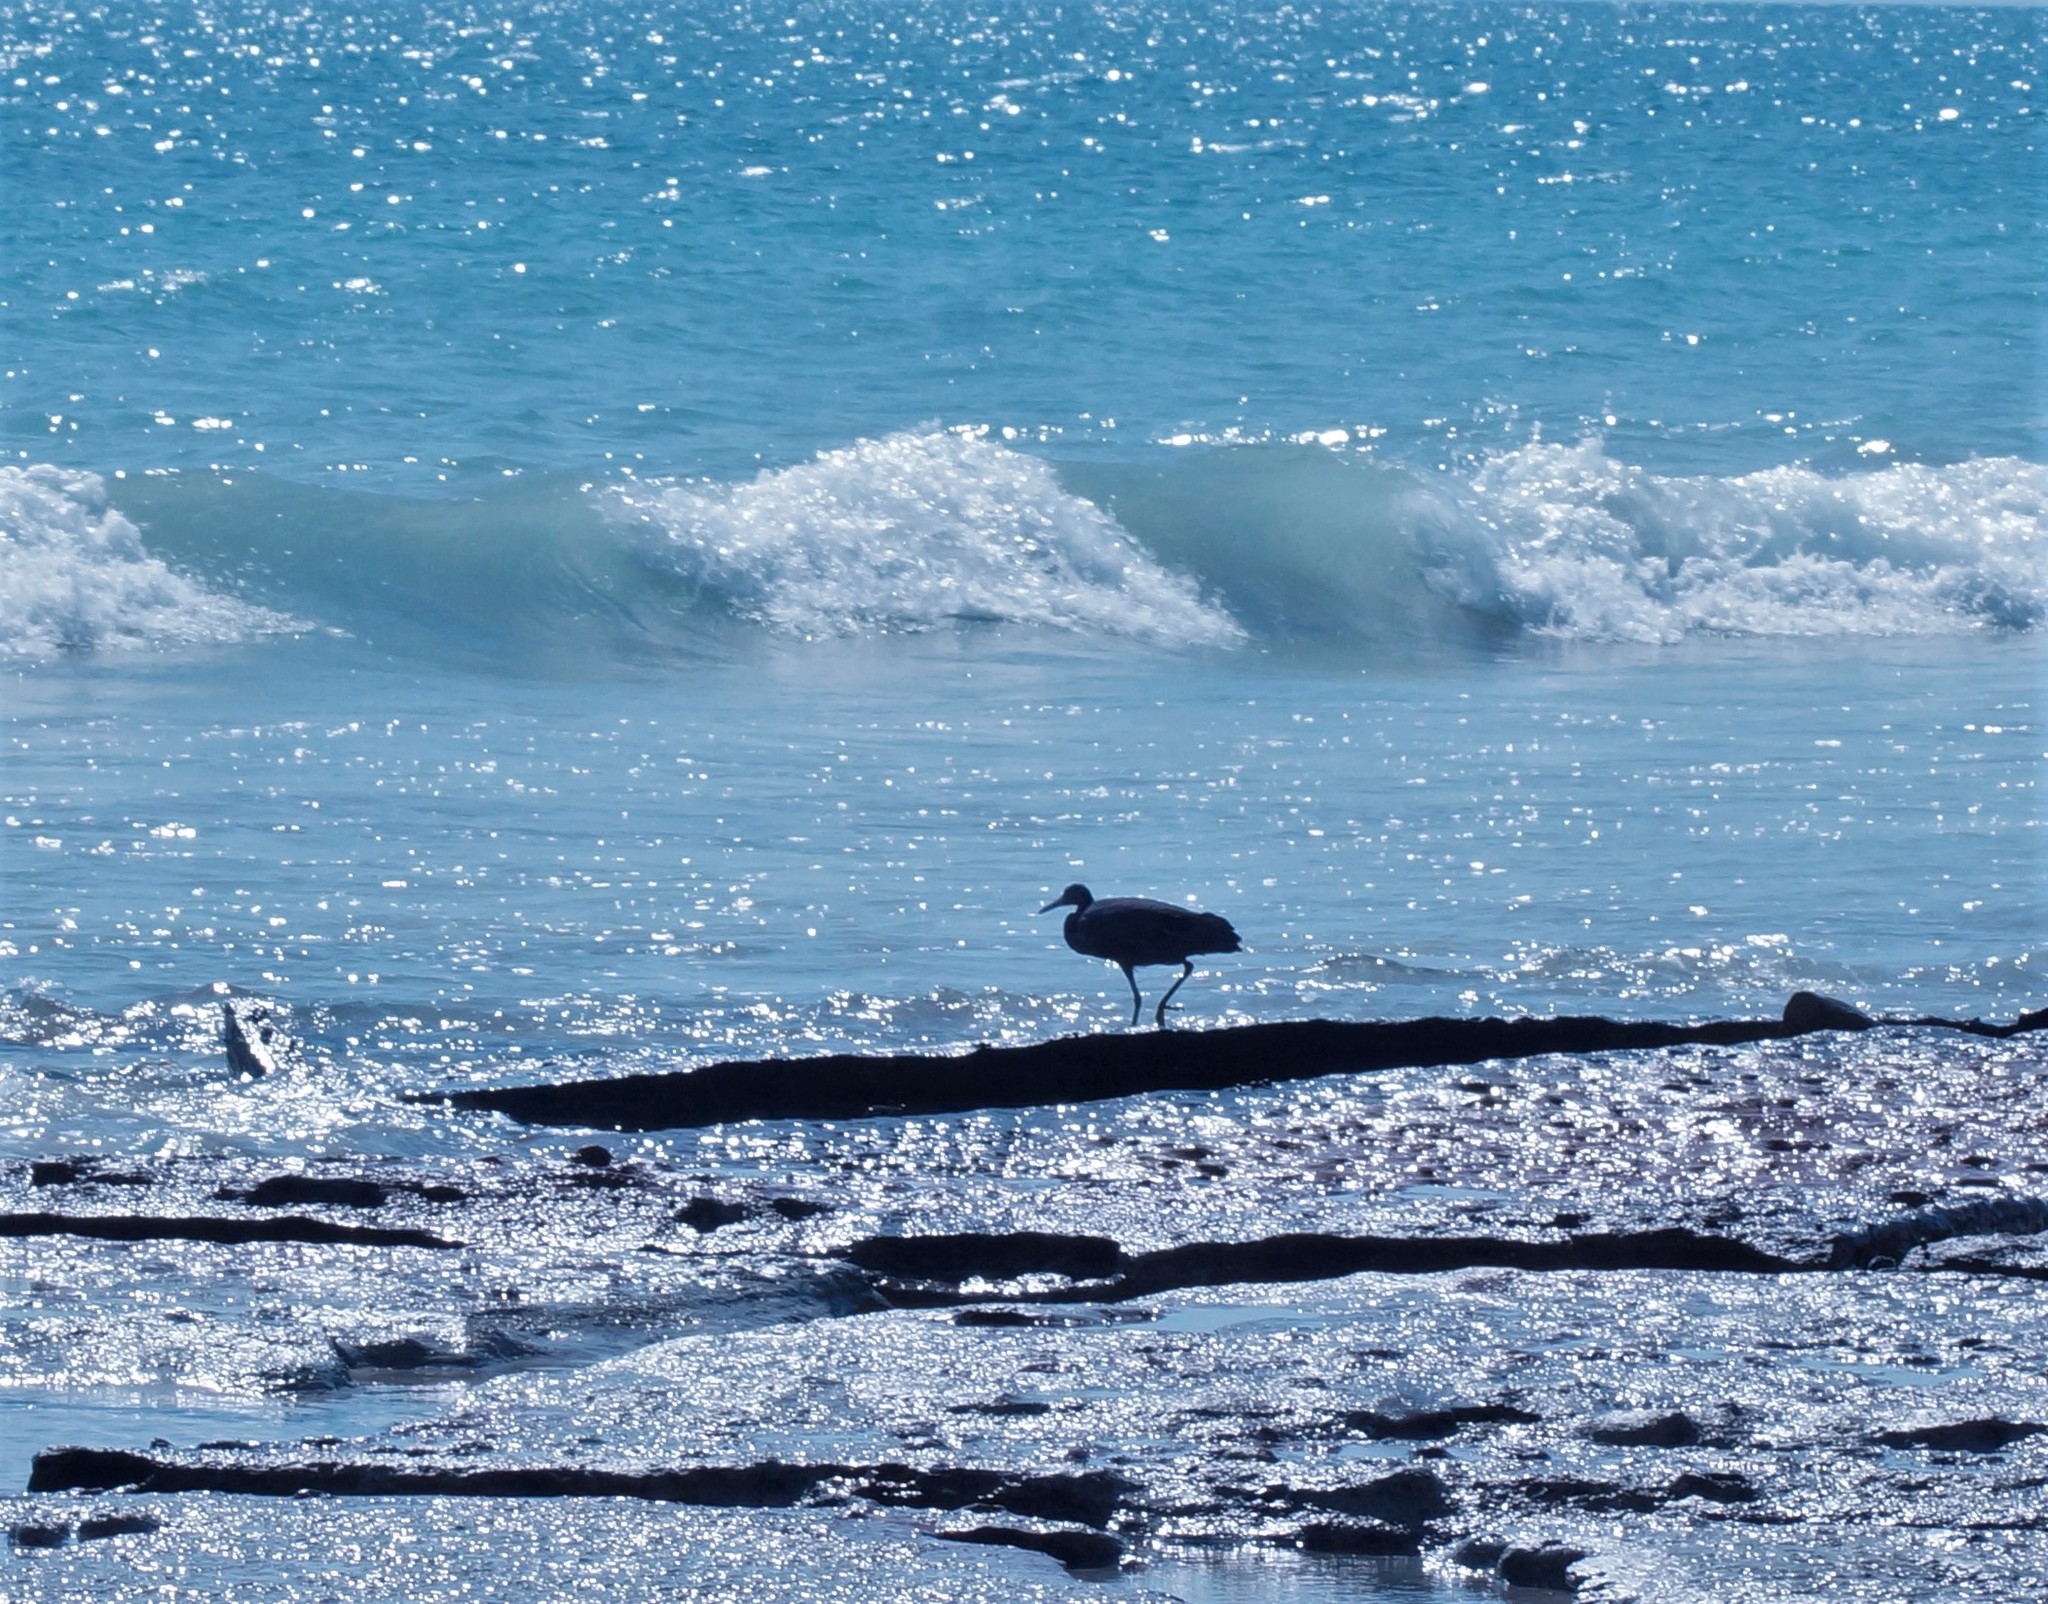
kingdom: Animalia
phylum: Chordata
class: Aves
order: Pelecaniformes
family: Ardeidae
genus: Egretta
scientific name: Egretta sacra
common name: Pacific reef heron
